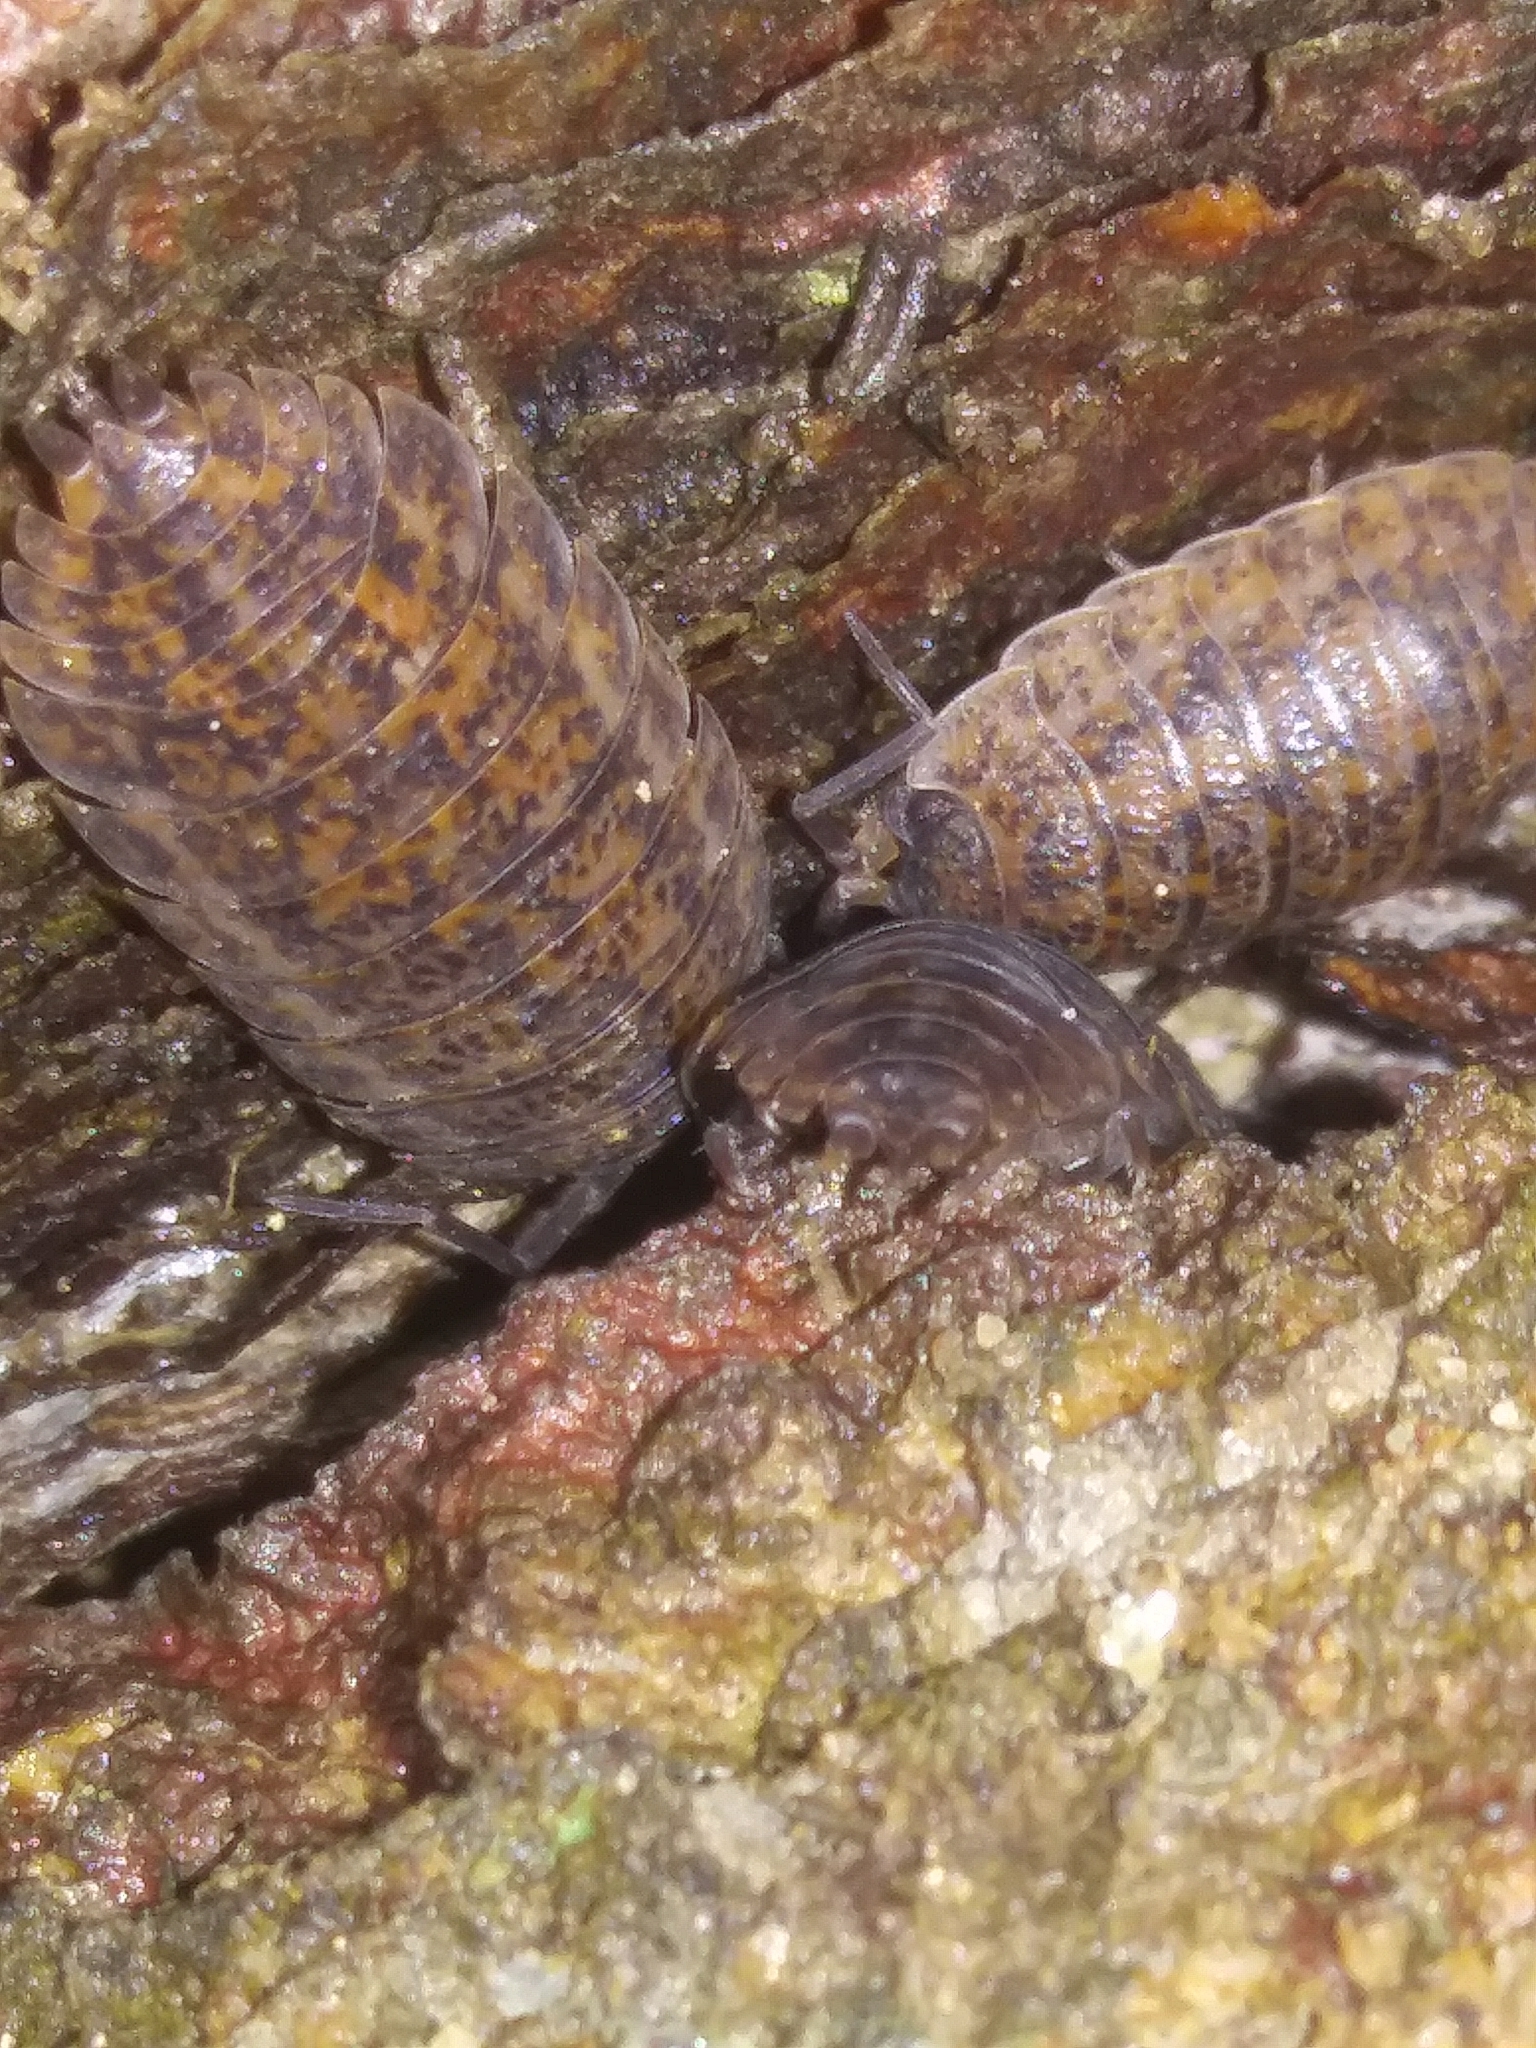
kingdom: Animalia
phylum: Arthropoda
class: Malacostraca
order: Isopoda
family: Trachelipodidae
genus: Trachelipus
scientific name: Trachelipus rathkii
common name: Isopod
